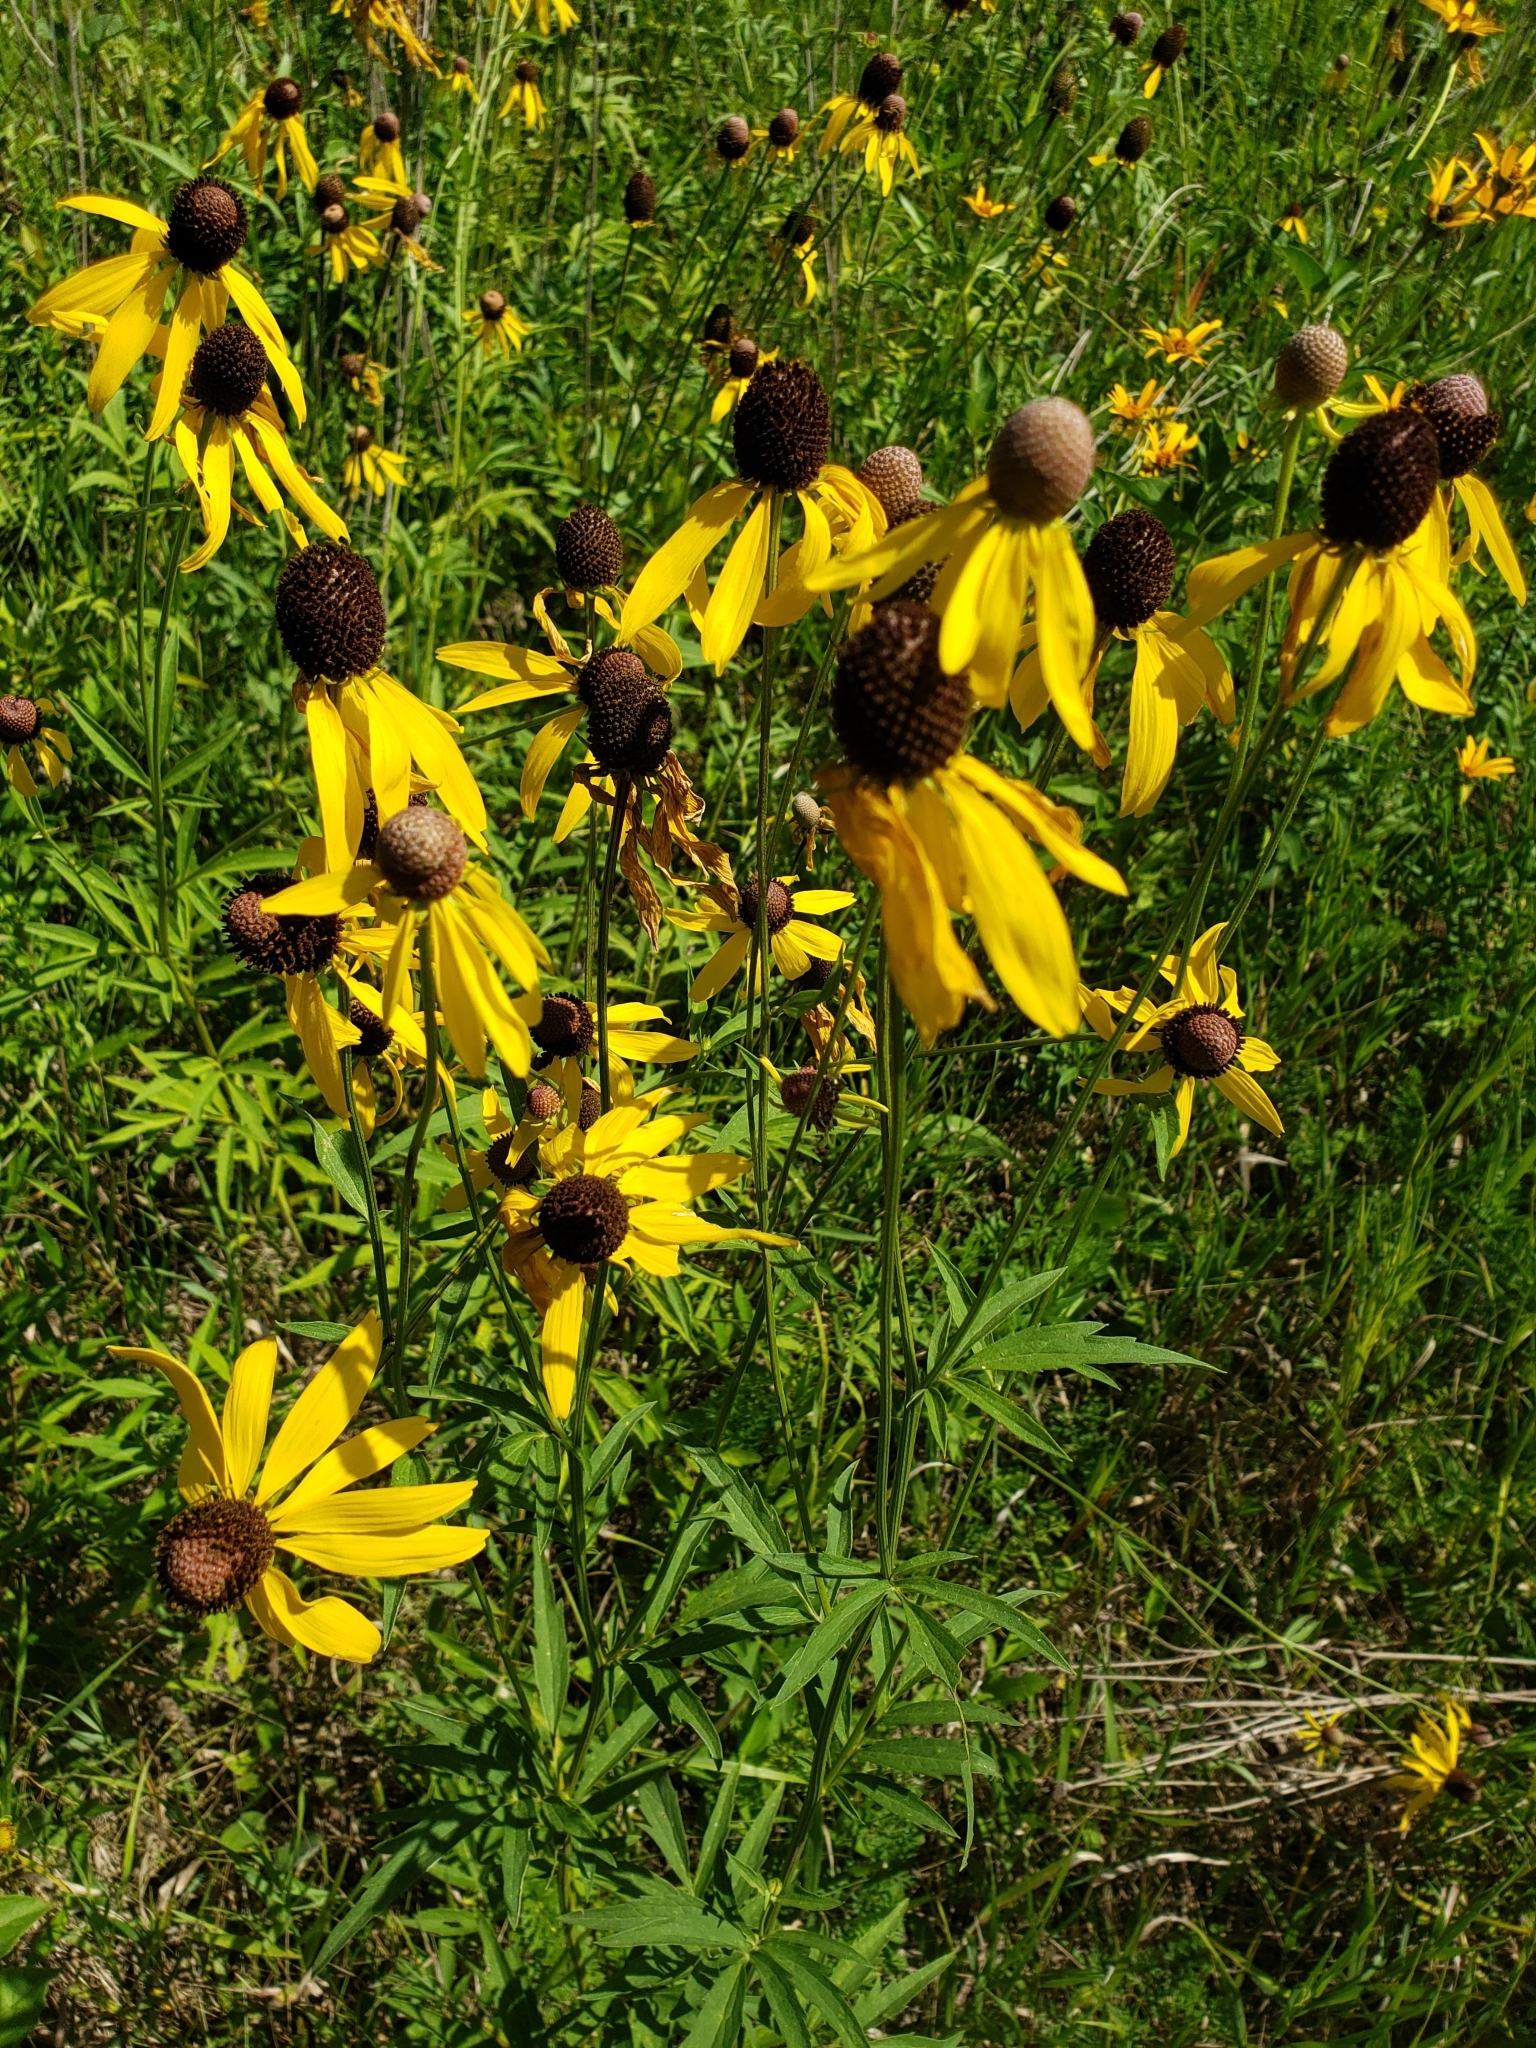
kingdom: Plantae
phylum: Tracheophyta
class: Magnoliopsida
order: Asterales
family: Asteraceae
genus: Ratibida
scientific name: Ratibida pinnata
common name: Drooping prairie-coneflower
